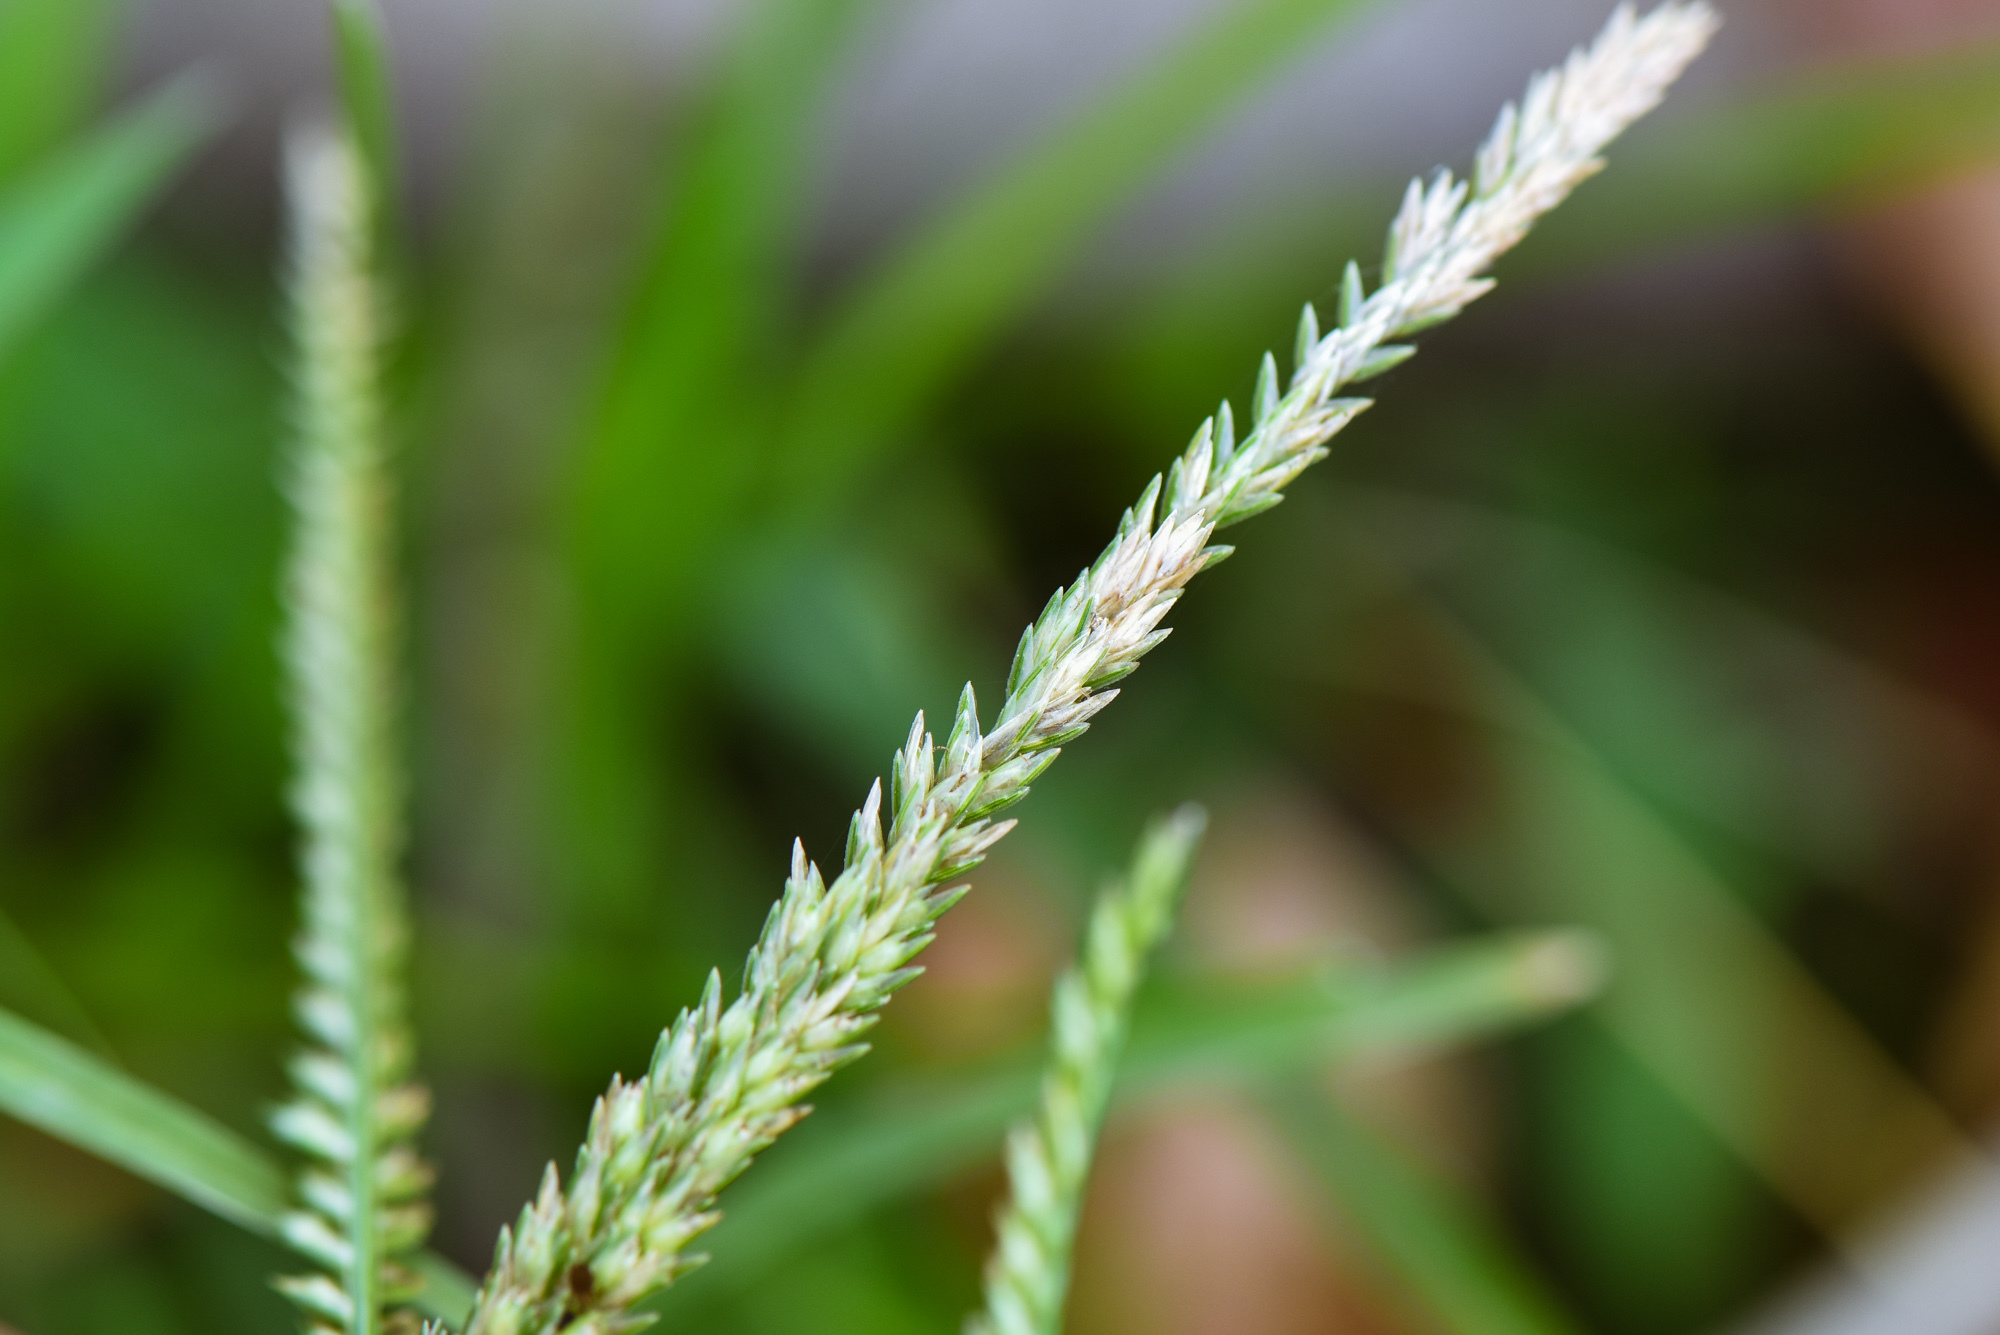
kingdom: Plantae
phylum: Tracheophyta
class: Liliopsida
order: Poales
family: Poaceae
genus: Eleusine
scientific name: Eleusine indica
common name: Yard-grass
